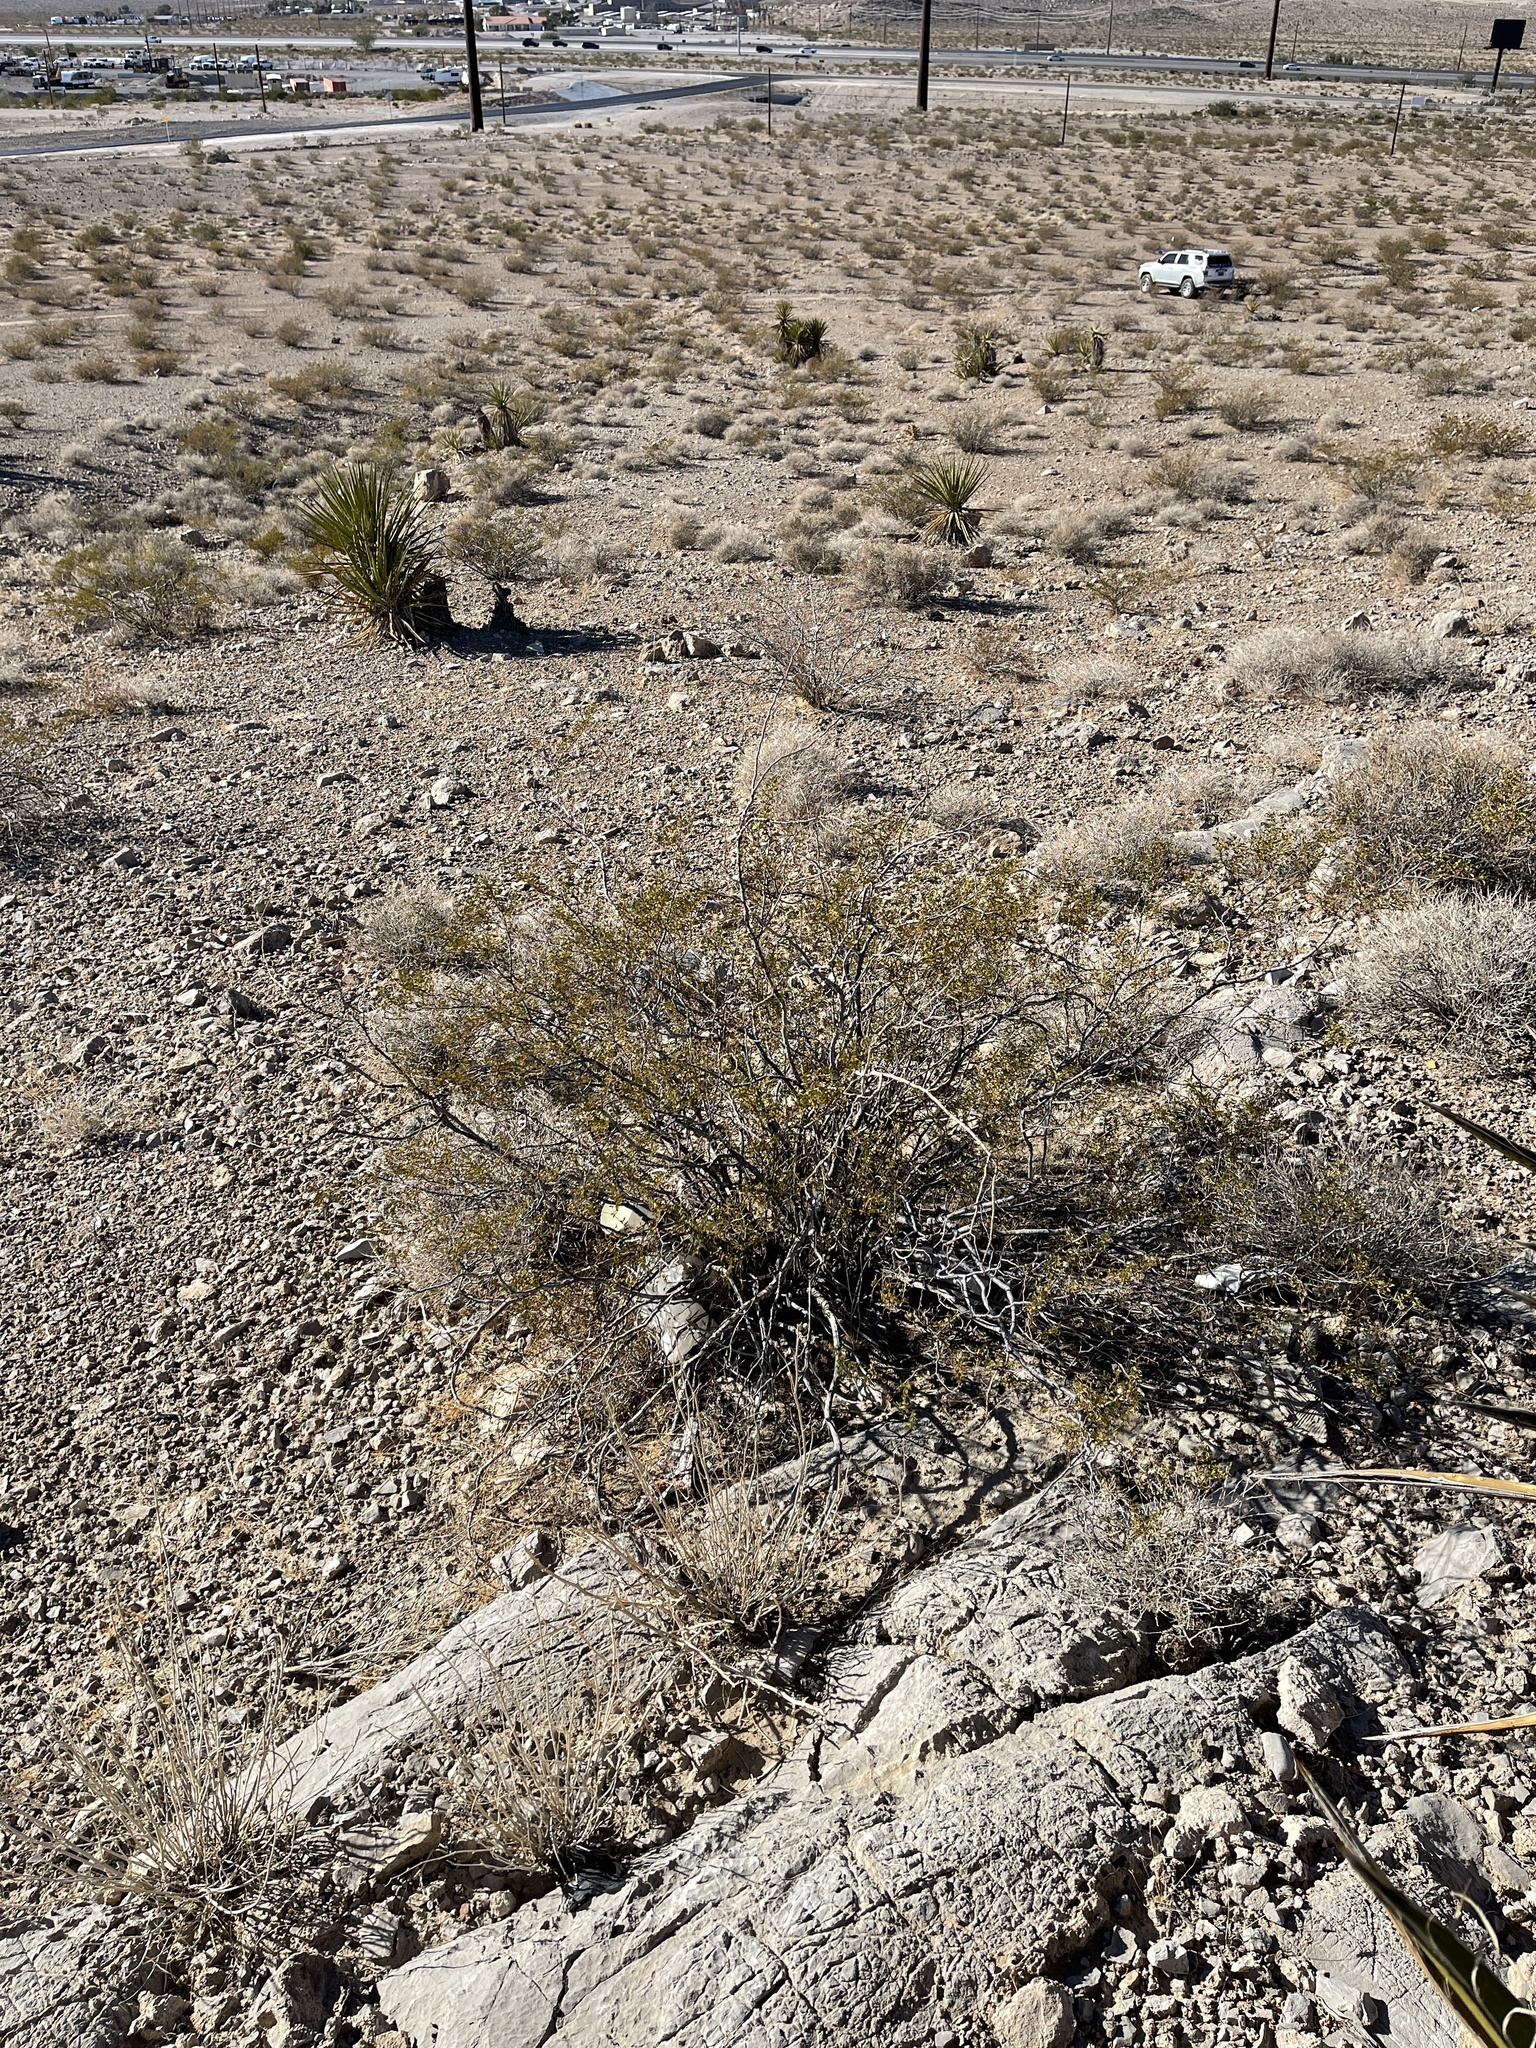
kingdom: Plantae
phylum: Tracheophyta
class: Magnoliopsida
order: Zygophyllales
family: Zygophyllaceae
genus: Larrea
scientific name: Larrea tridentata
